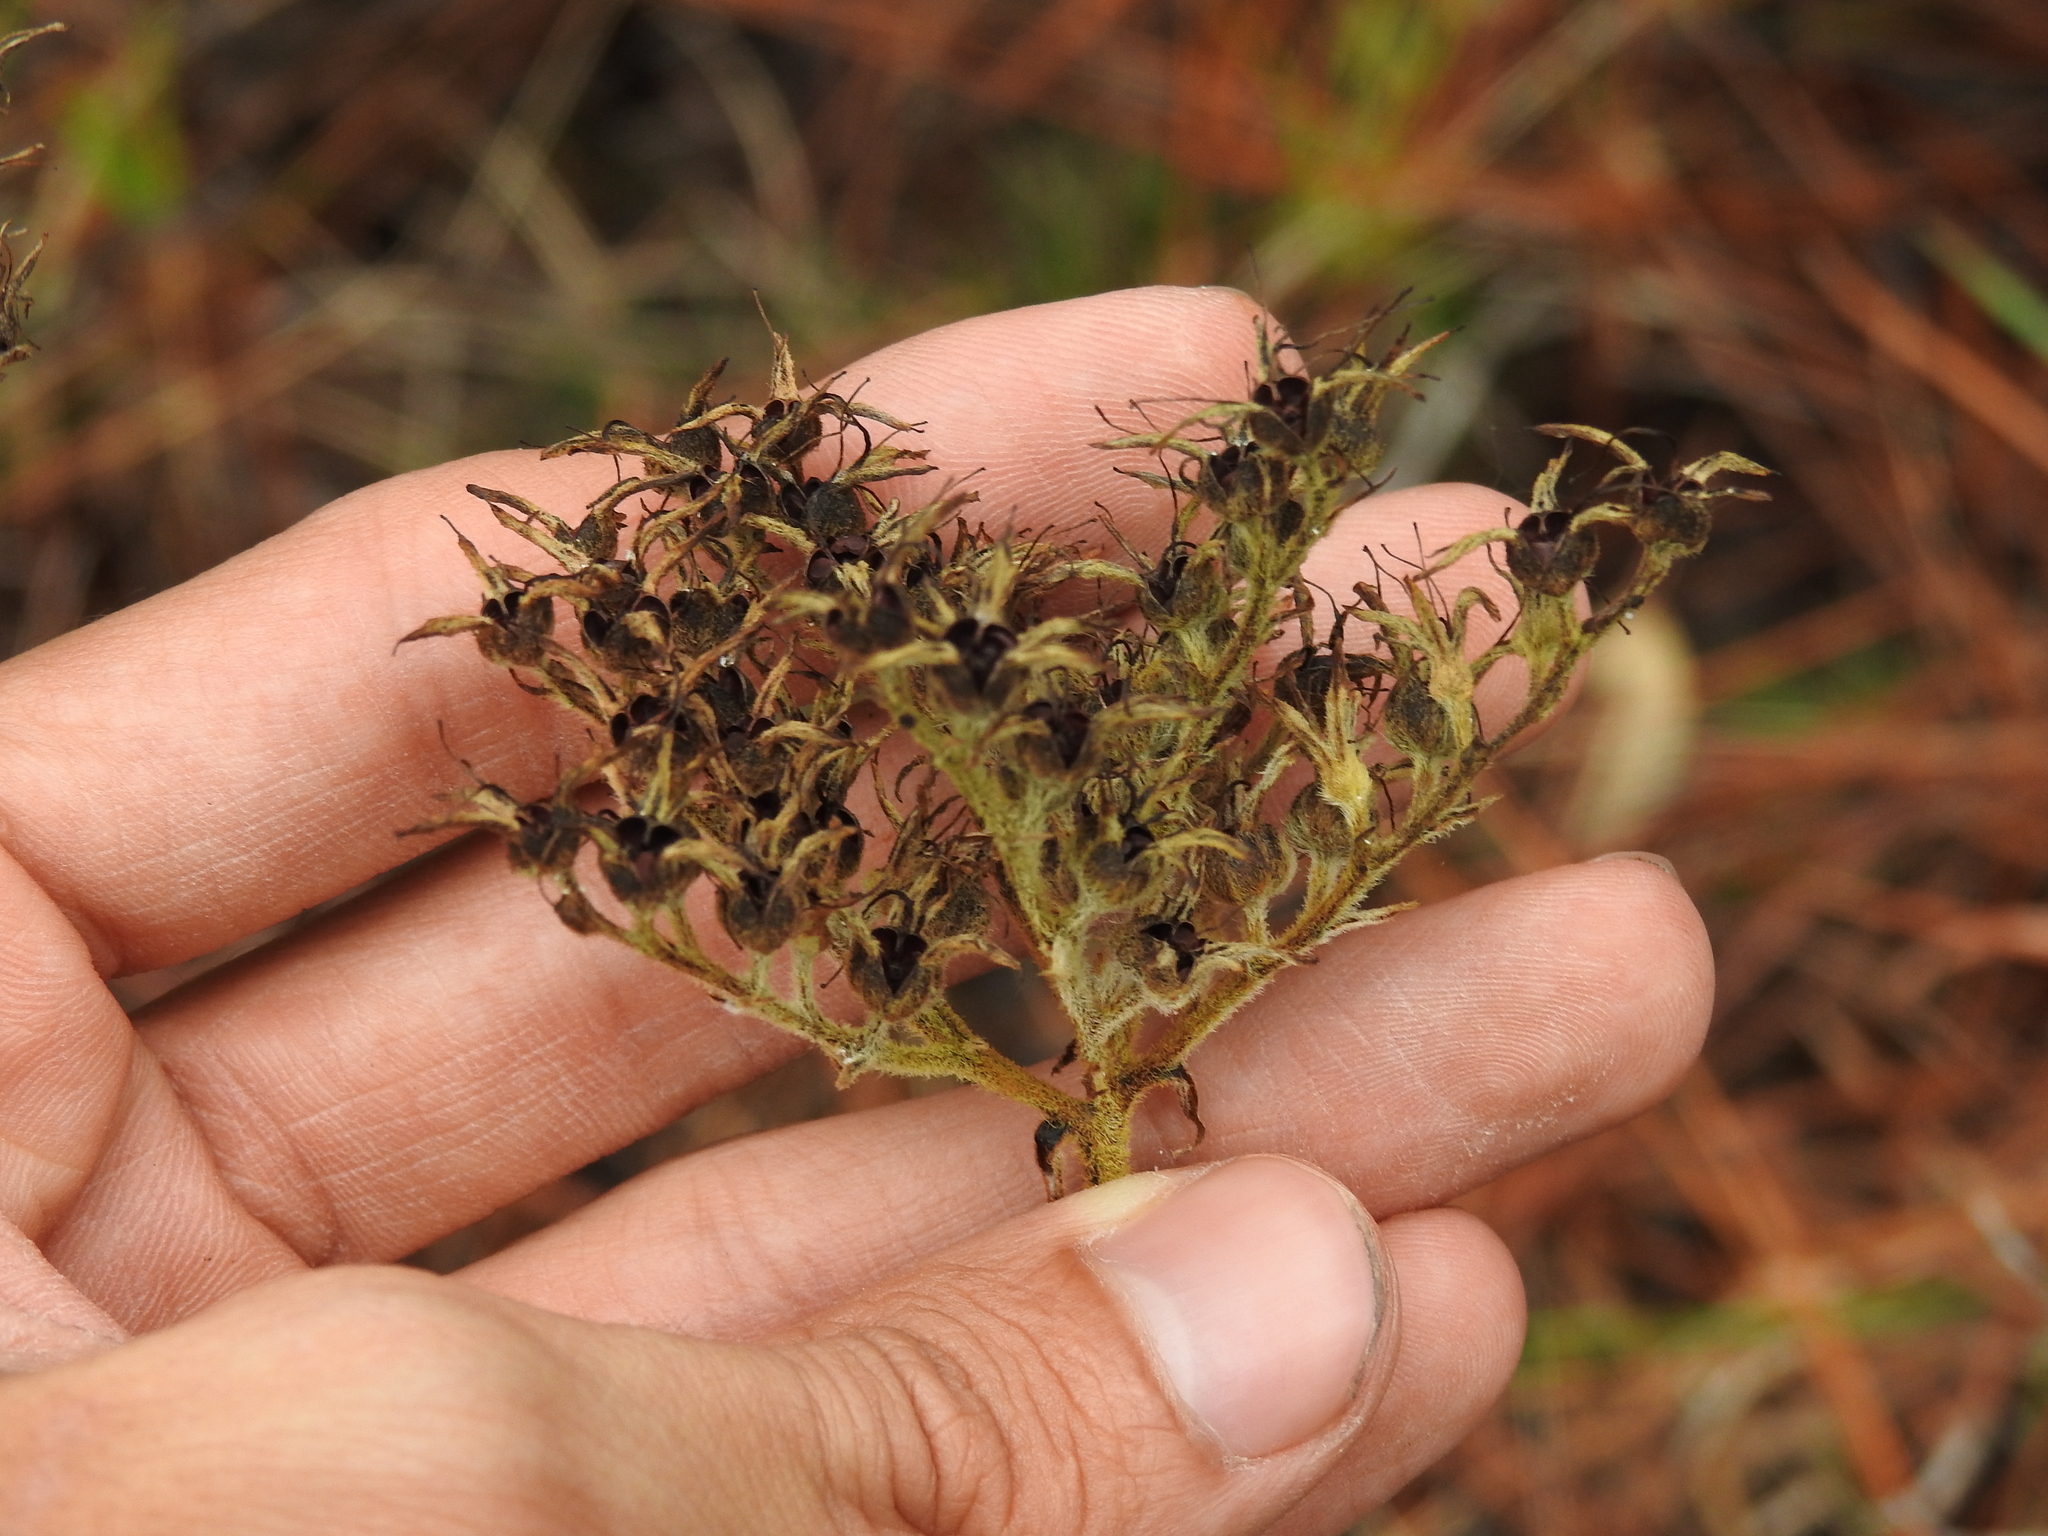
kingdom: Plantae
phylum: Tracheophyta
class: Liliopsida
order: Commelinales
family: Haemodoraceae
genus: Lachnanthes
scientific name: Lachnanthes caroliana
